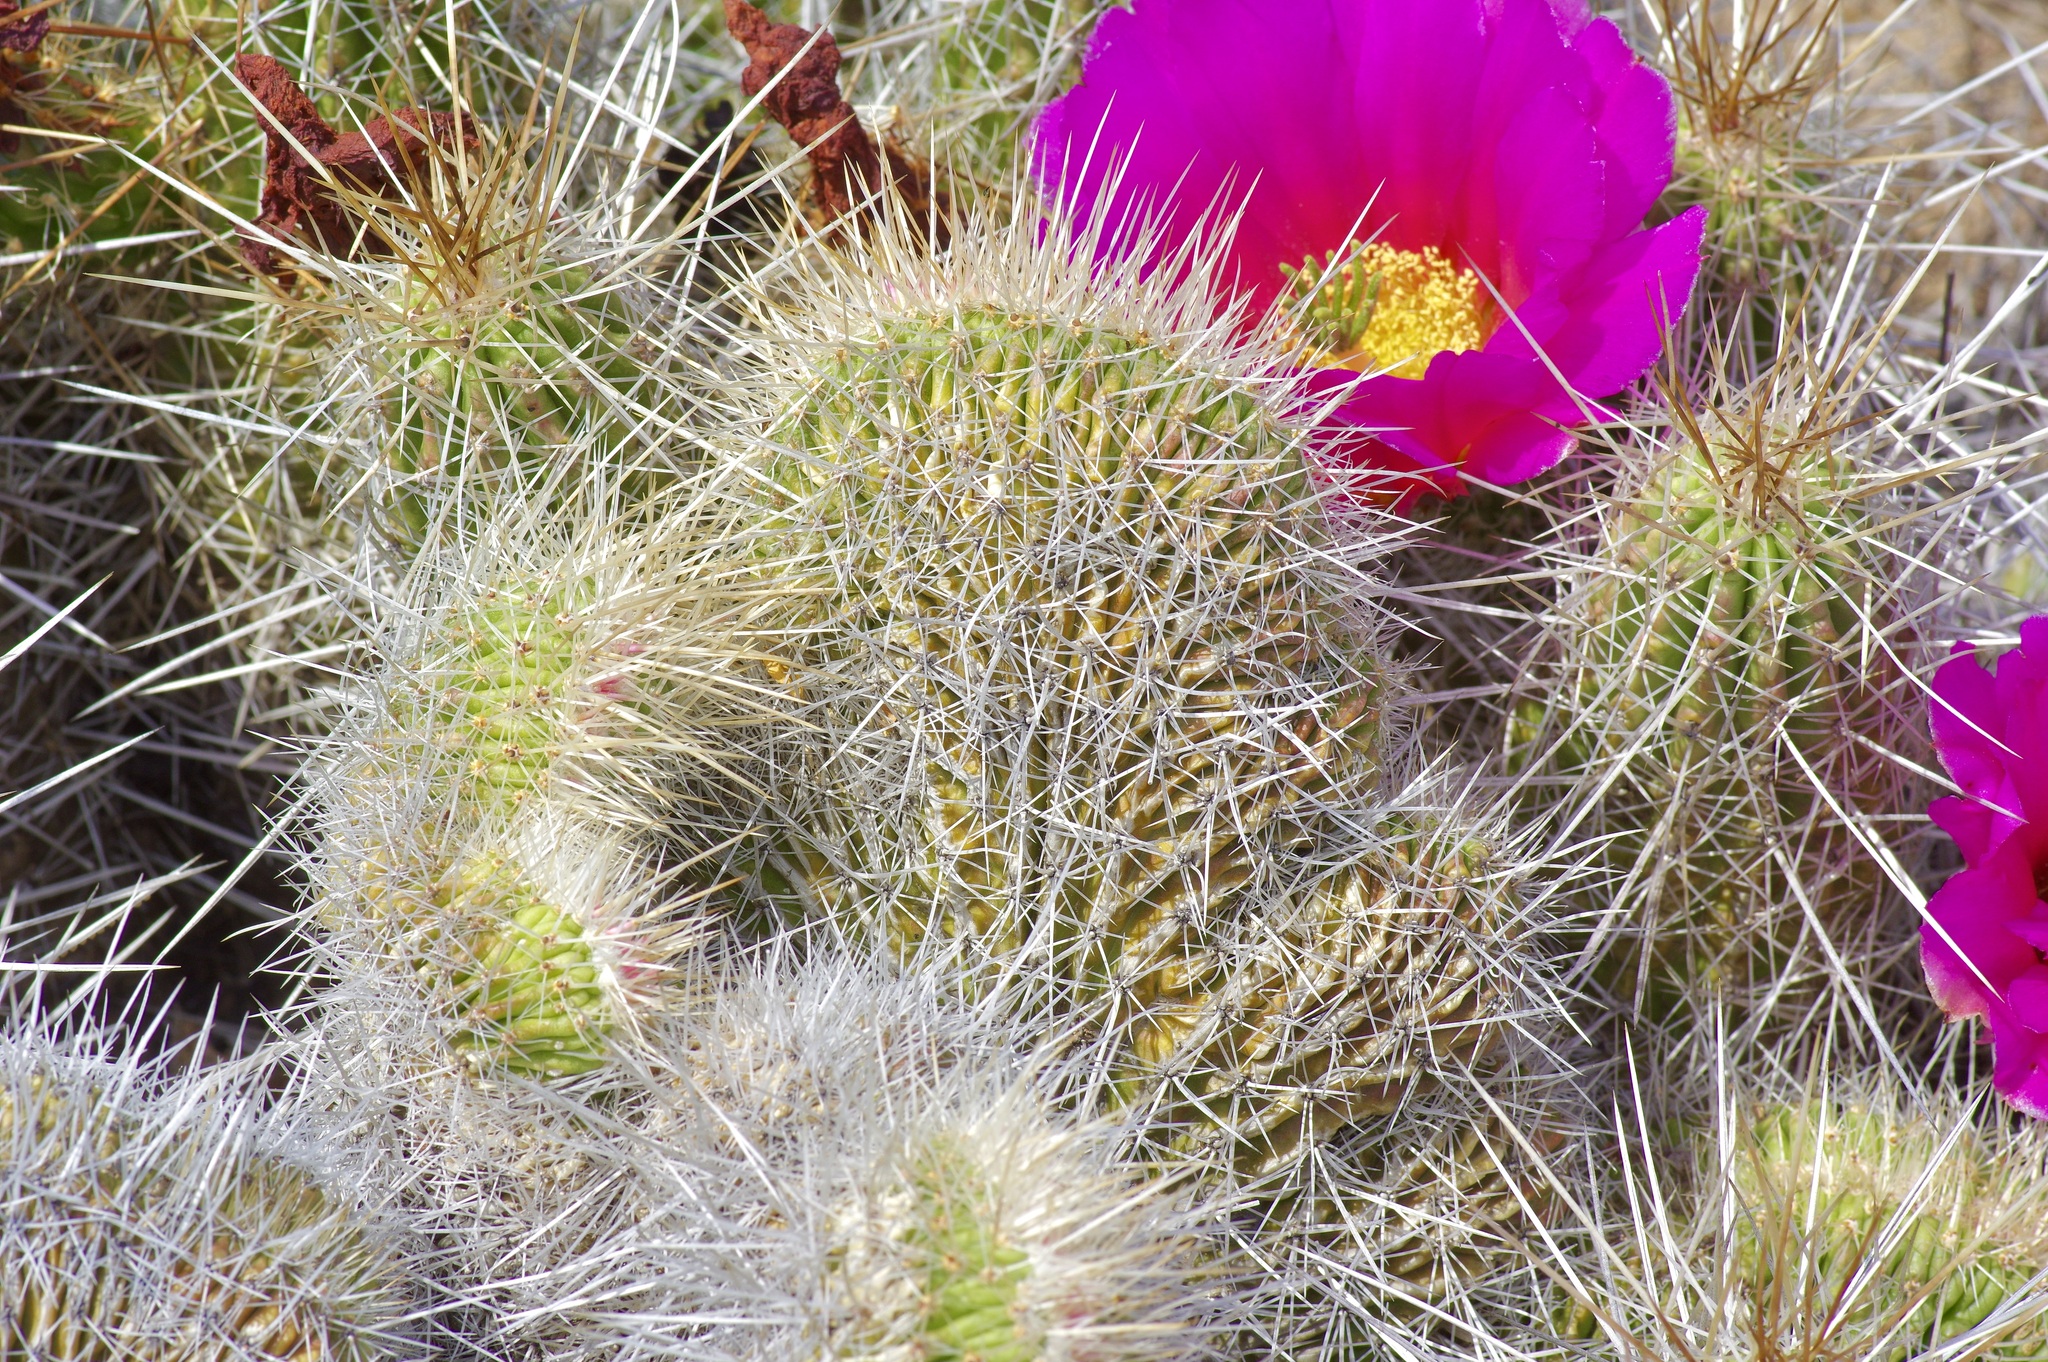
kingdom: Plantae
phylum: Tracheophyta
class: Magnoliopsida
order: Caryophyllales
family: Cactaceae
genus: Echinocereus
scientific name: Echinocereus stramineus
